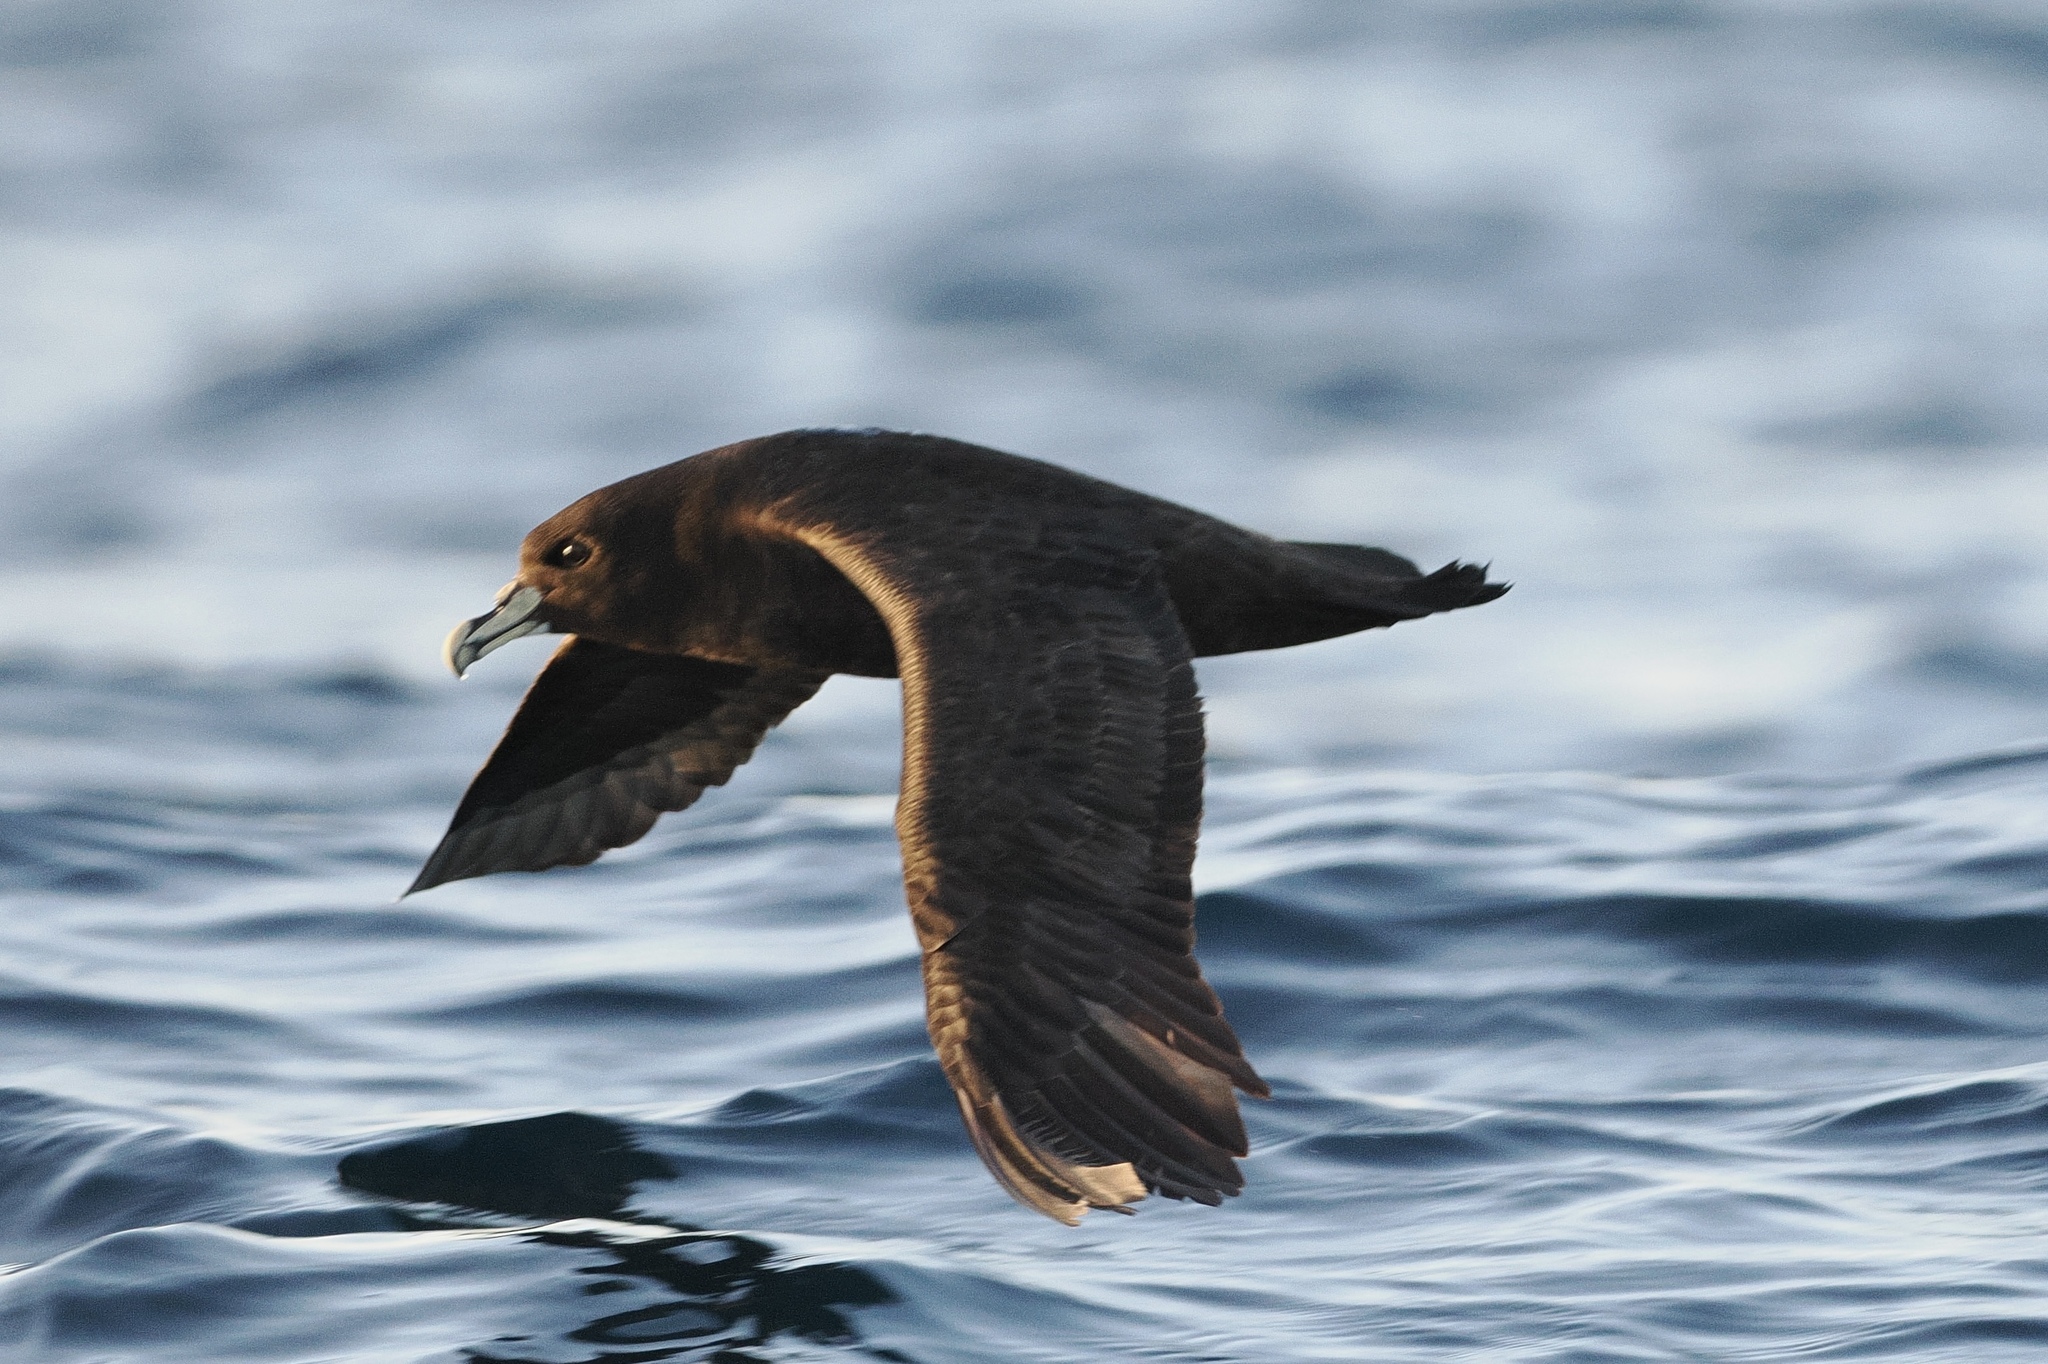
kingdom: Animalia
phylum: Chordata
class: Aves
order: Procellariiformes
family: Procellariidae
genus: Procellaria
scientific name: Procellaria aequinoctialis
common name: White-chinned petrel
